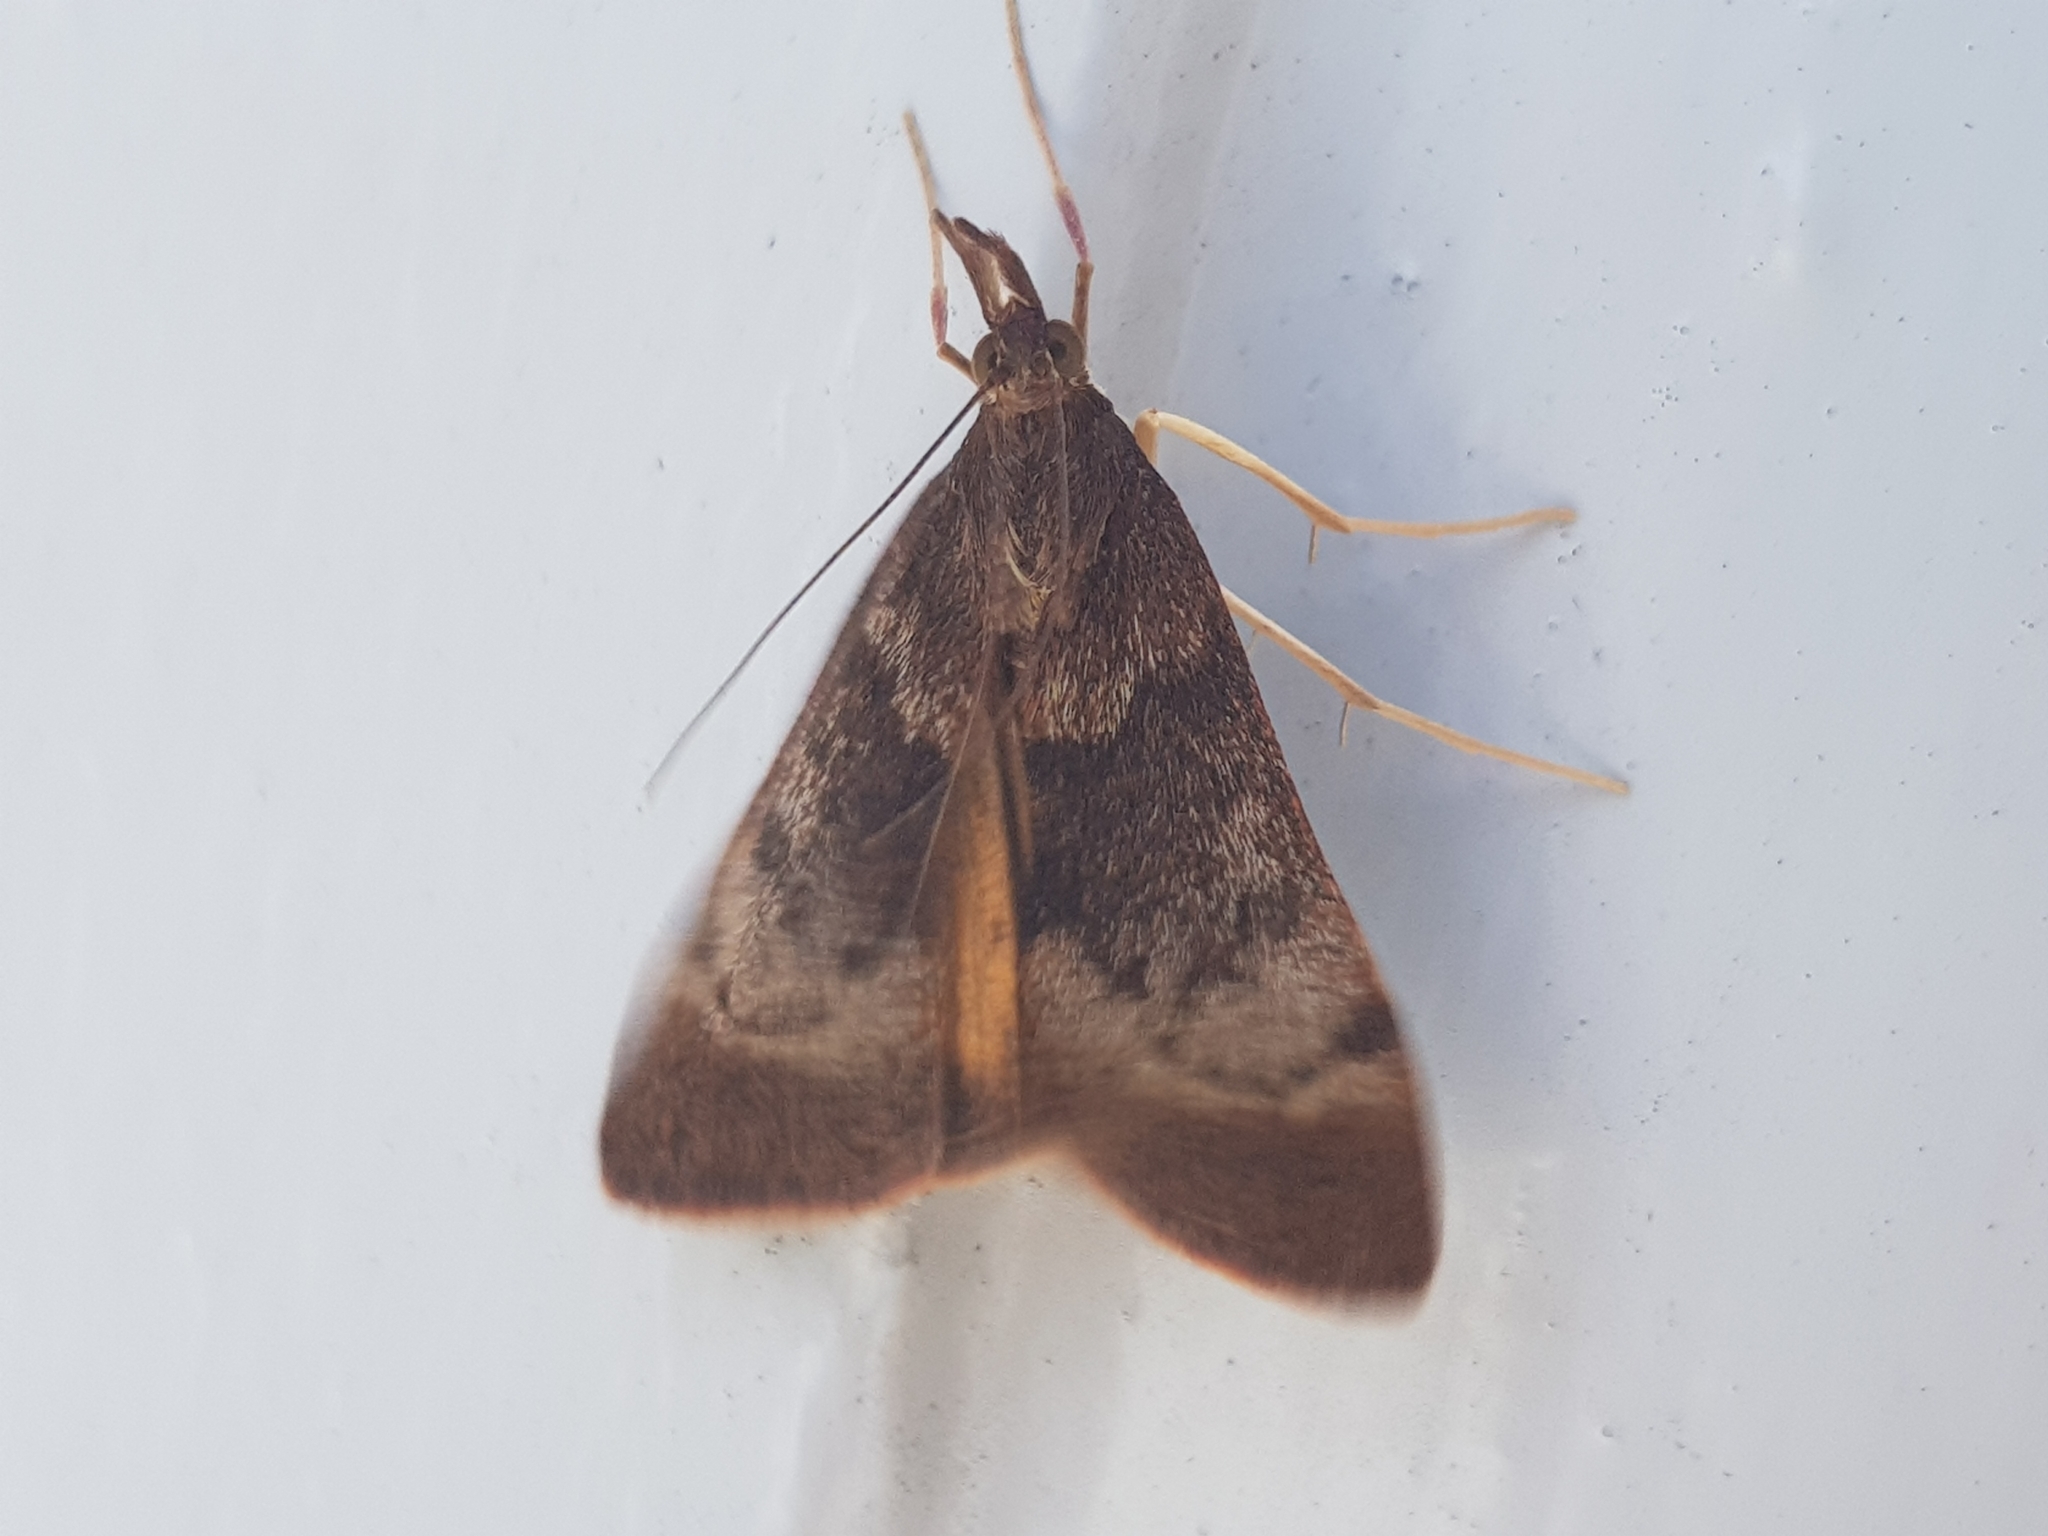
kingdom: Animalia
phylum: Arthropoda
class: Insecta
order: Lepidoptera
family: Crambidae
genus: Uresiphita
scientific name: Uresiphita
